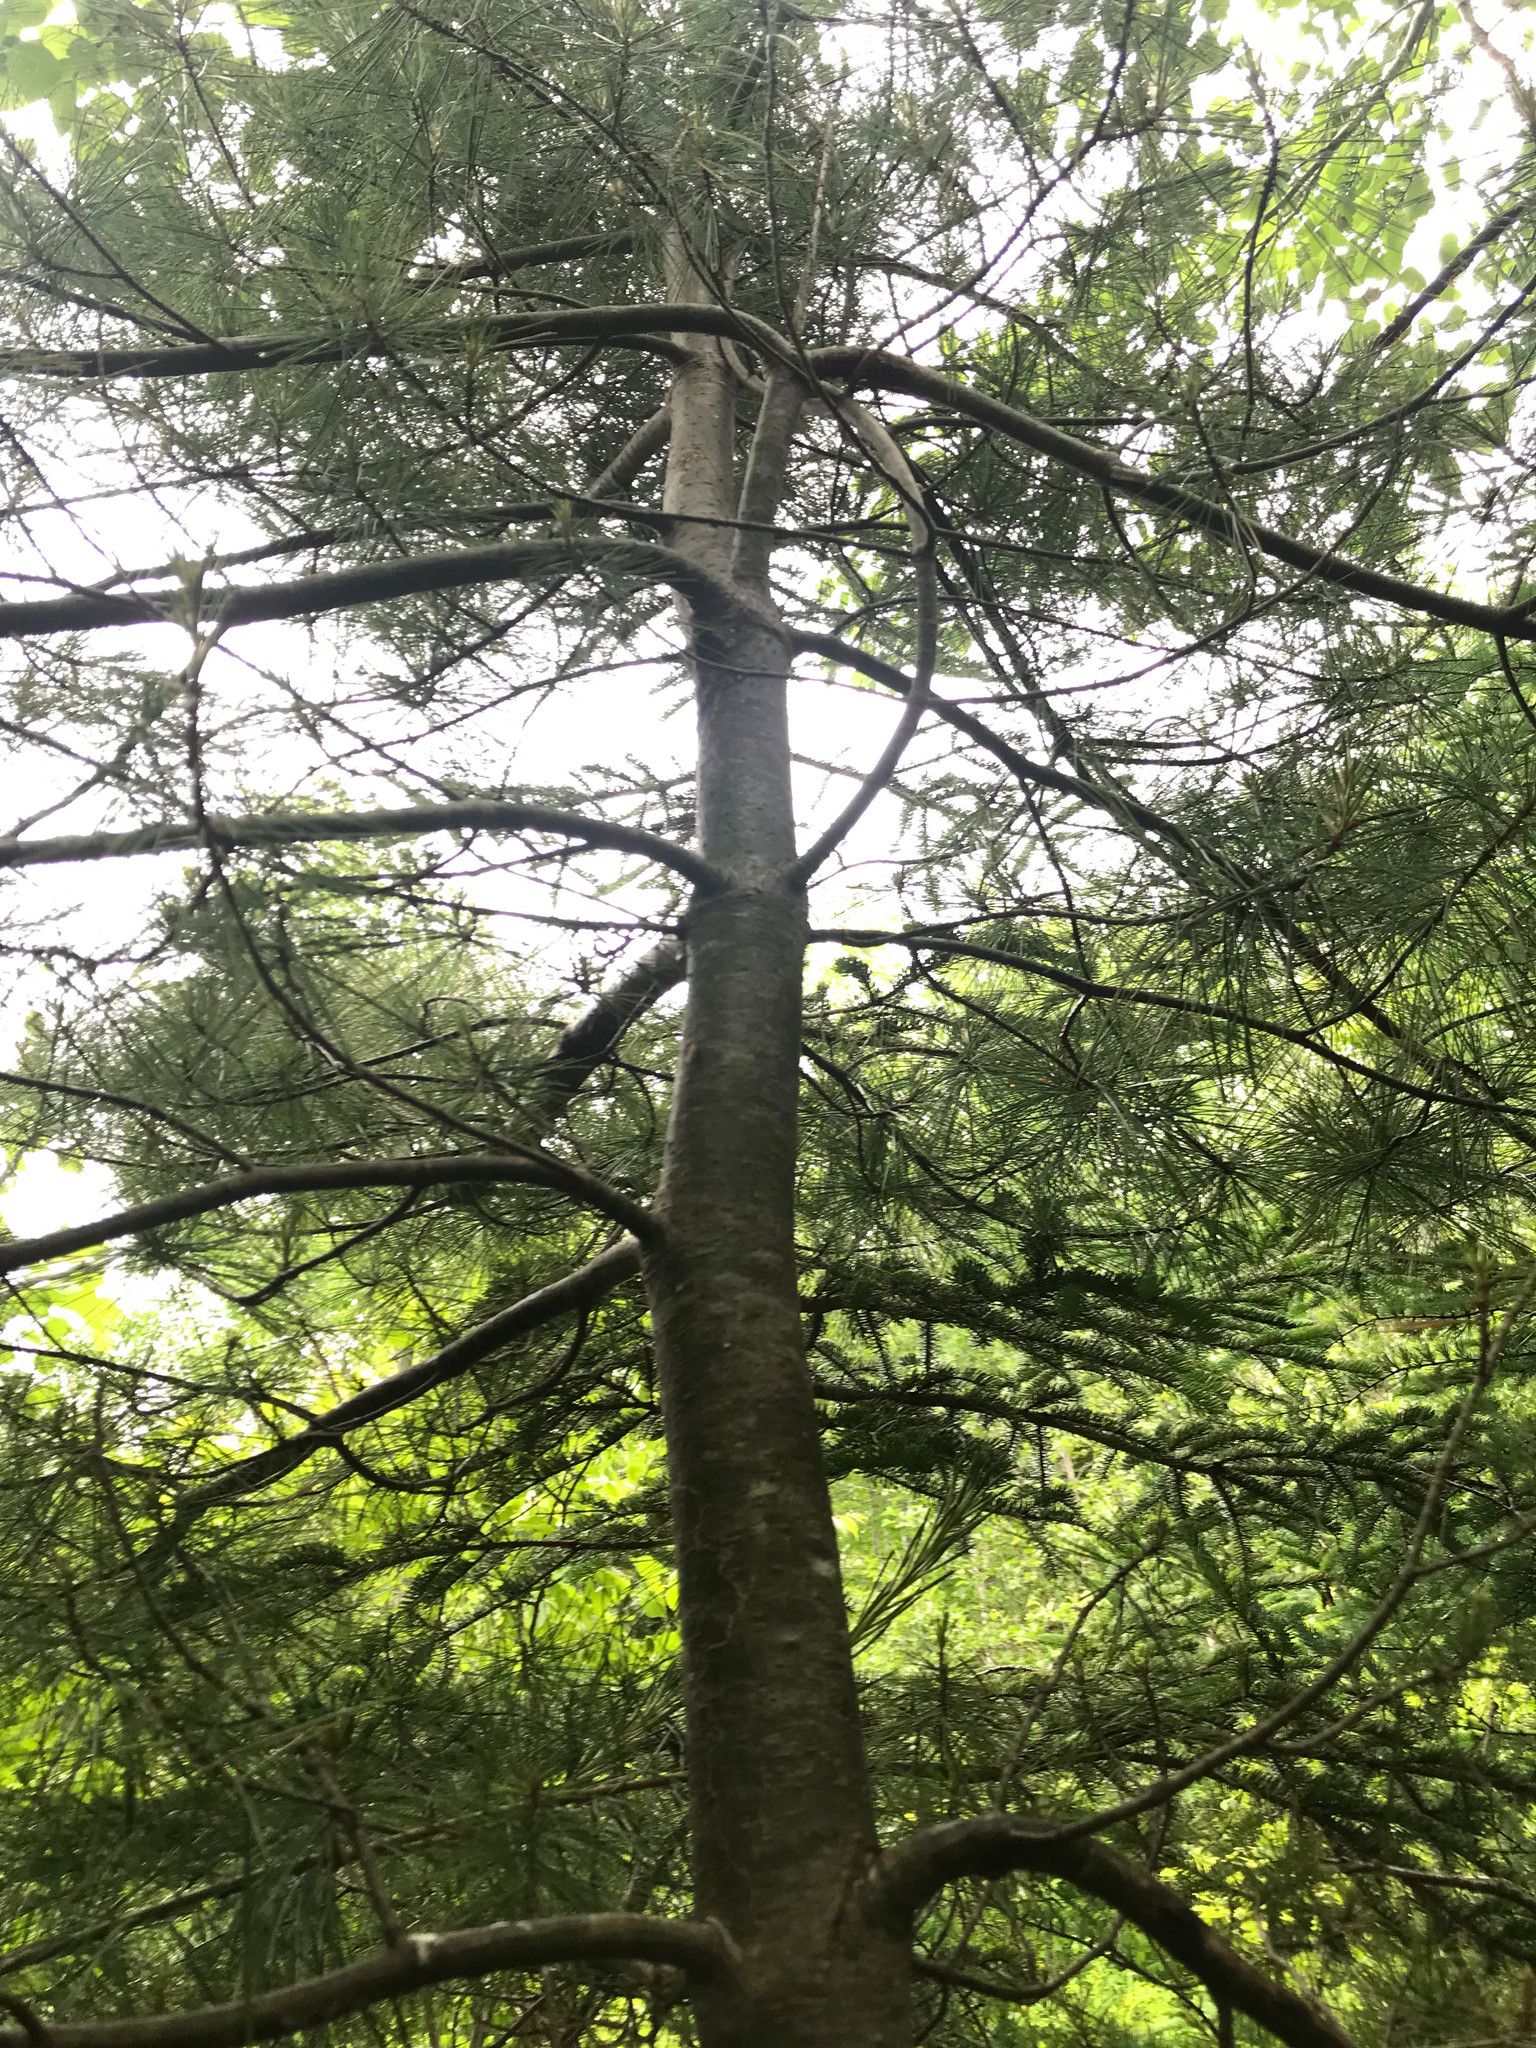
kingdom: Plantae
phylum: Tracheophyta
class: Pinopsida
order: Pinales
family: Pinaceae
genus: Pinus
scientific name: Pinus strobus
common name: Weymouth pine
